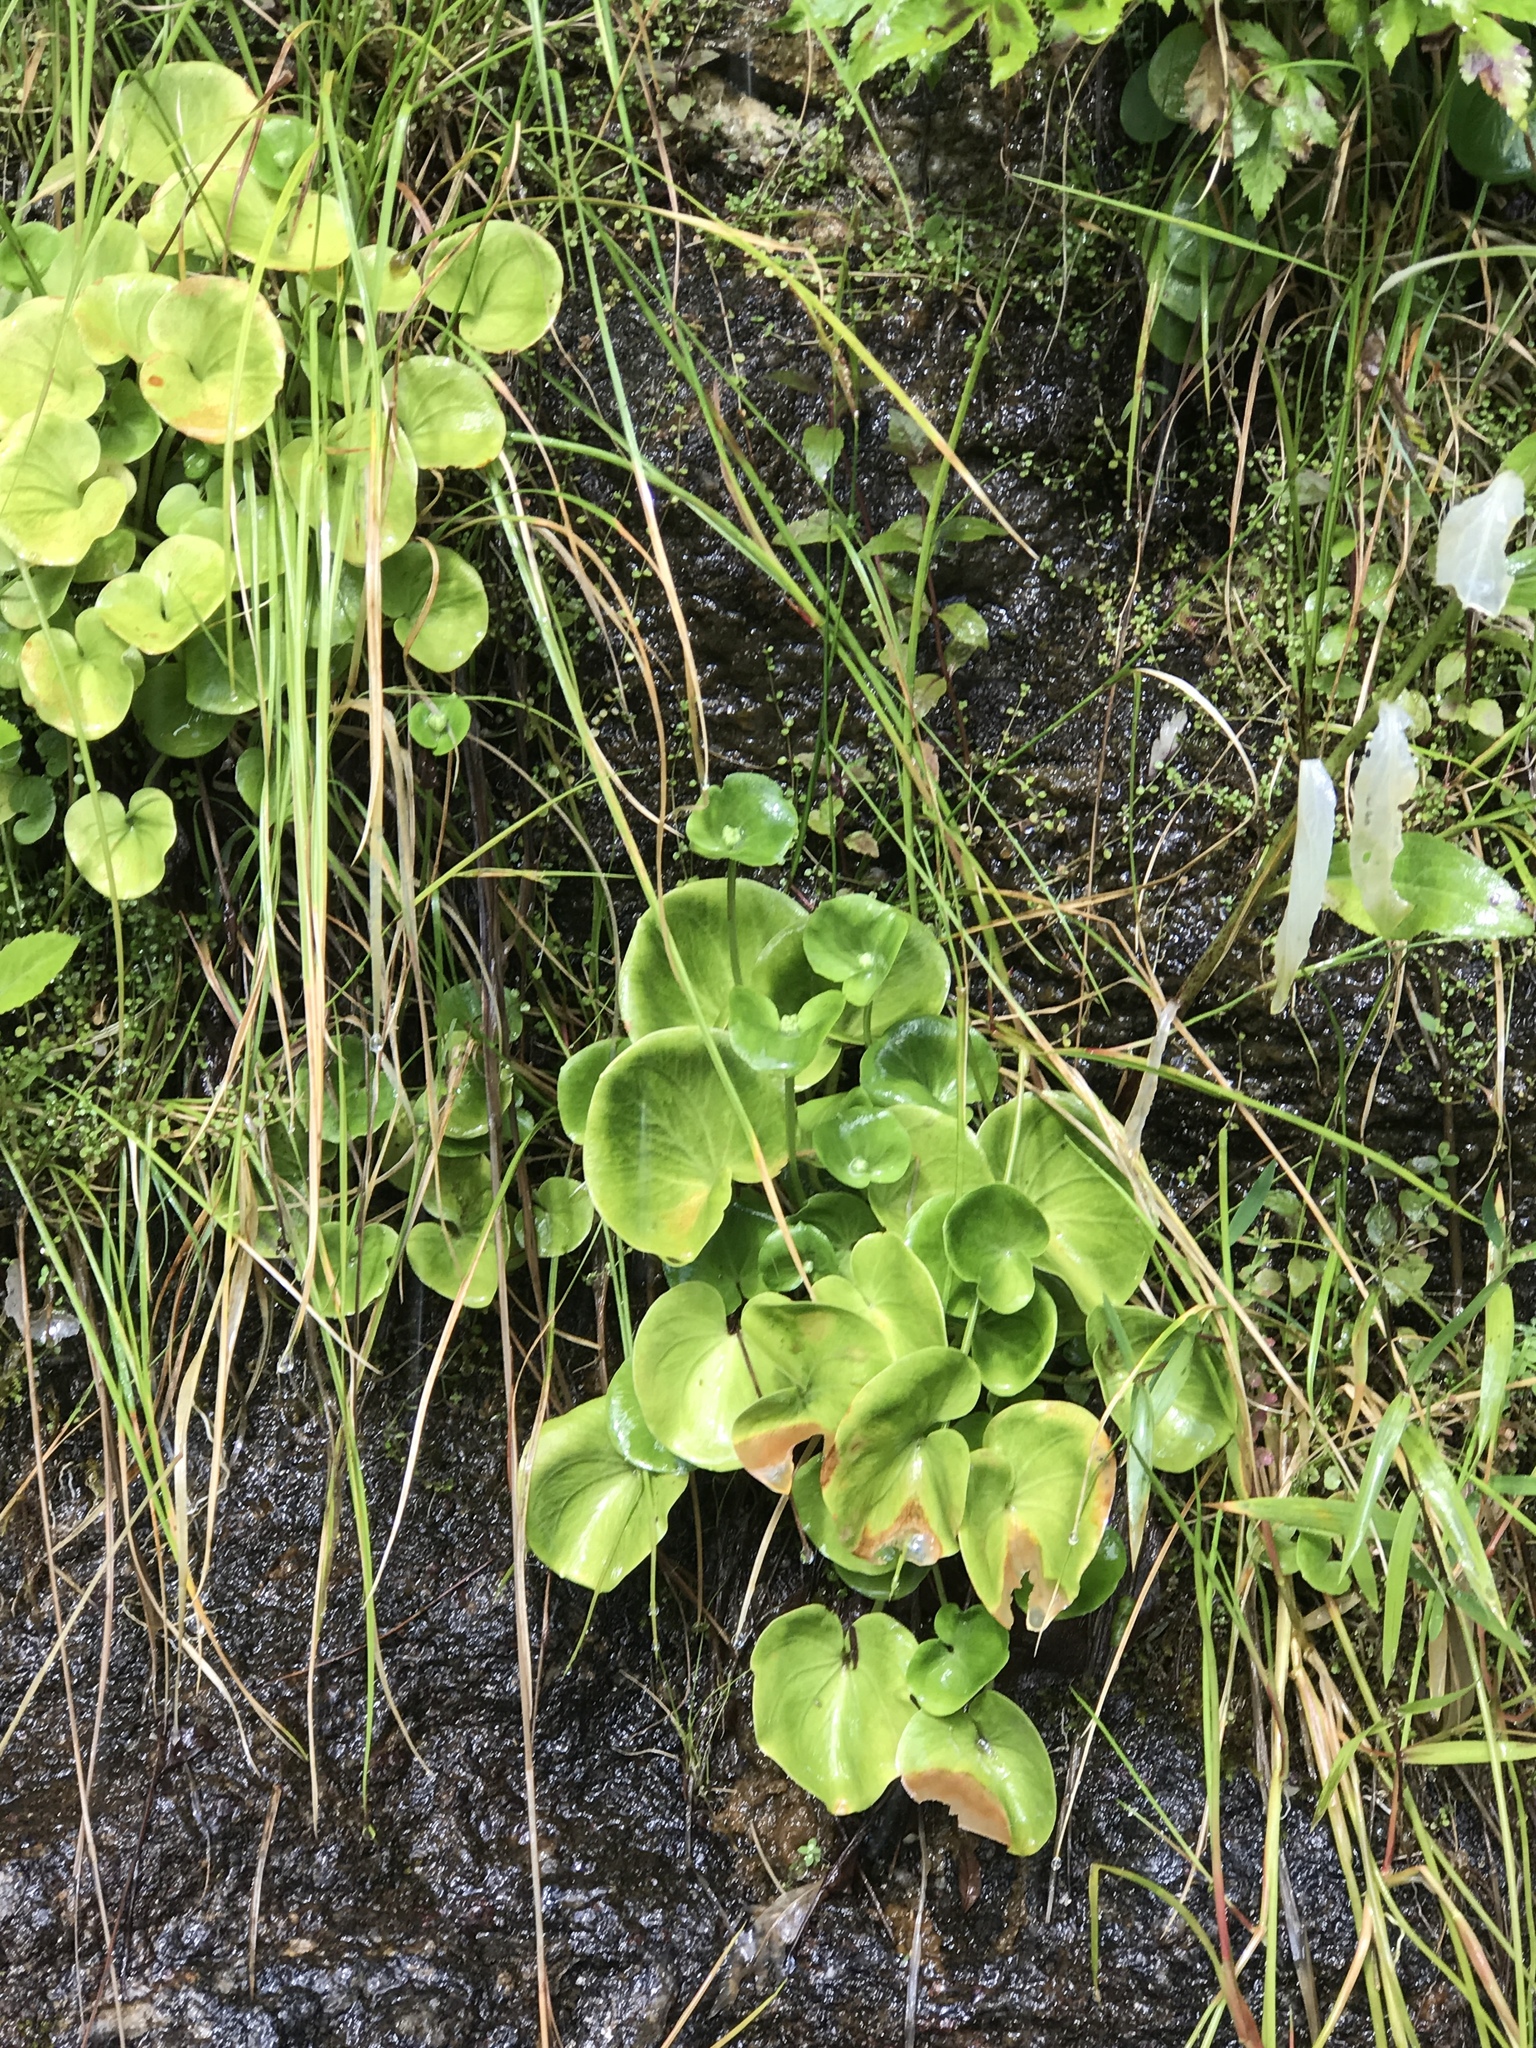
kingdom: Plantae
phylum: Tracheophyta
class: Magnoliopsida
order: Celastrales
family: Parnassiaceae
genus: Parnassia
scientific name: Parnassia asarifolia
